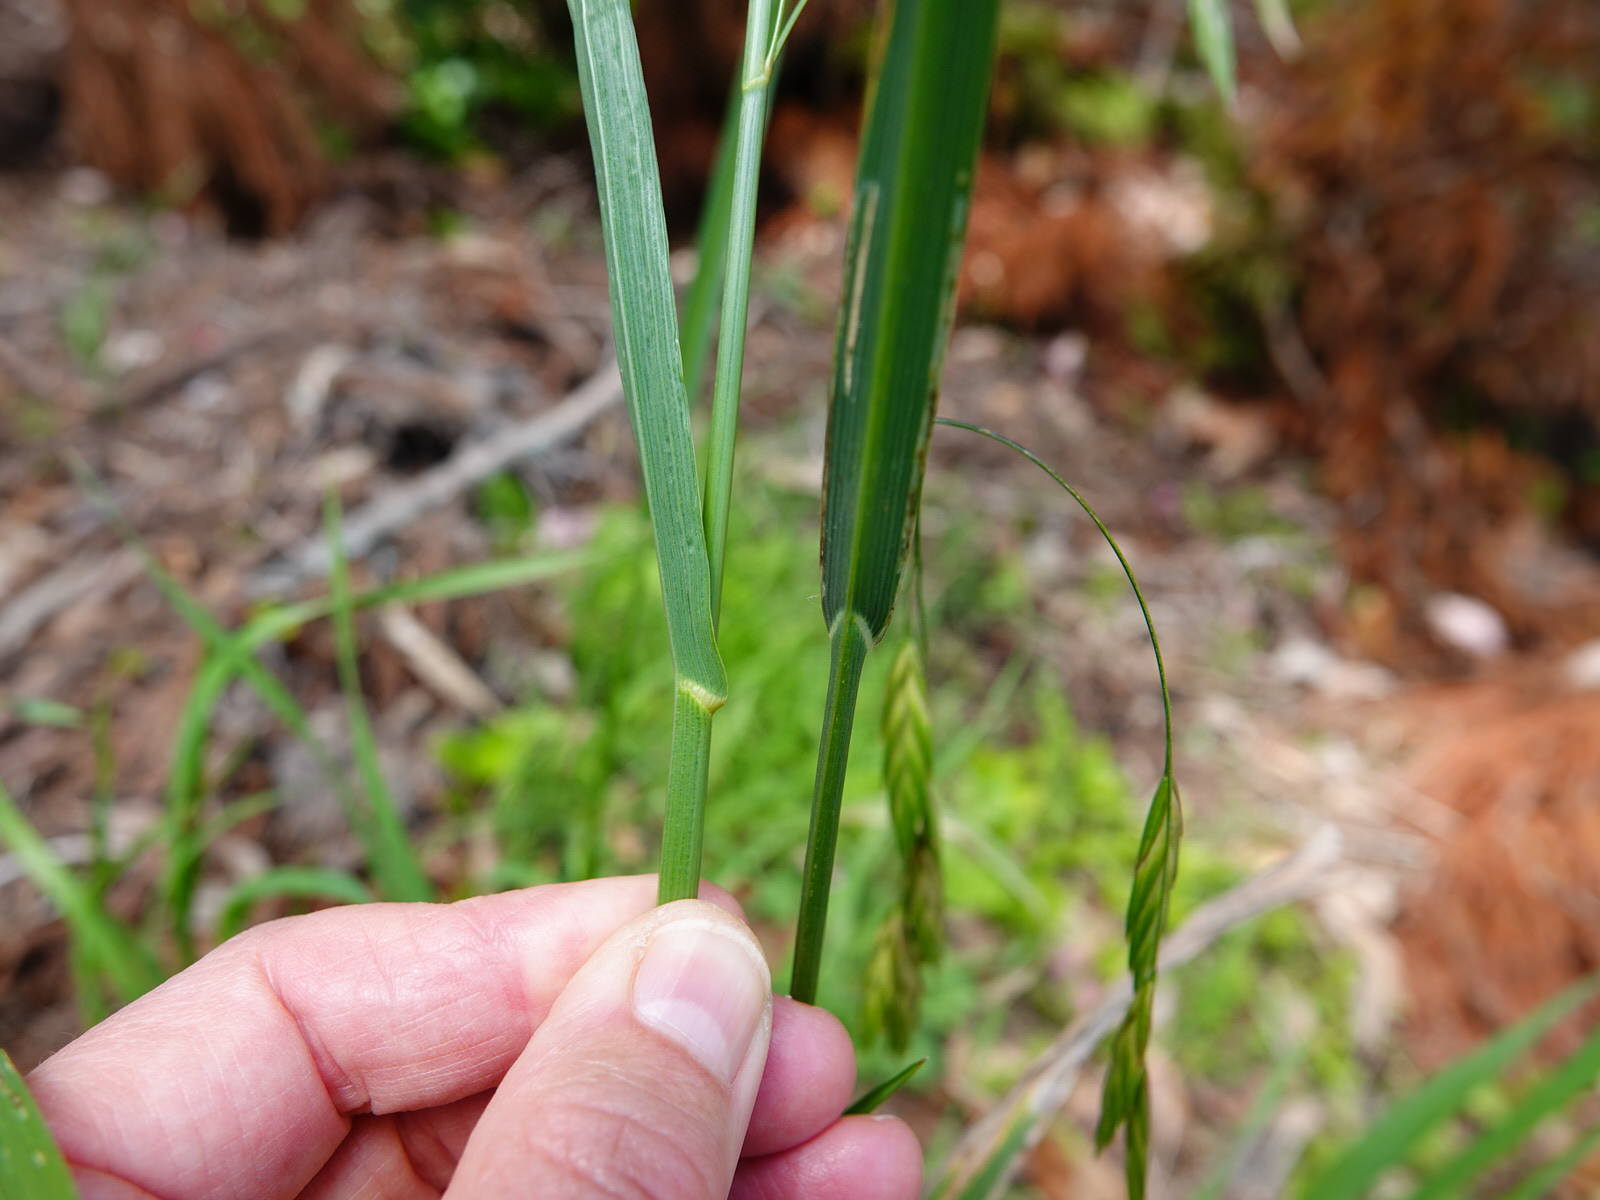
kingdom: Plantae
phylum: Tracheophyta
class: Liliopsida
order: Poales
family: Poaceae
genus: Bromus
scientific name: Bromus catharticus
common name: Rescuegrass
